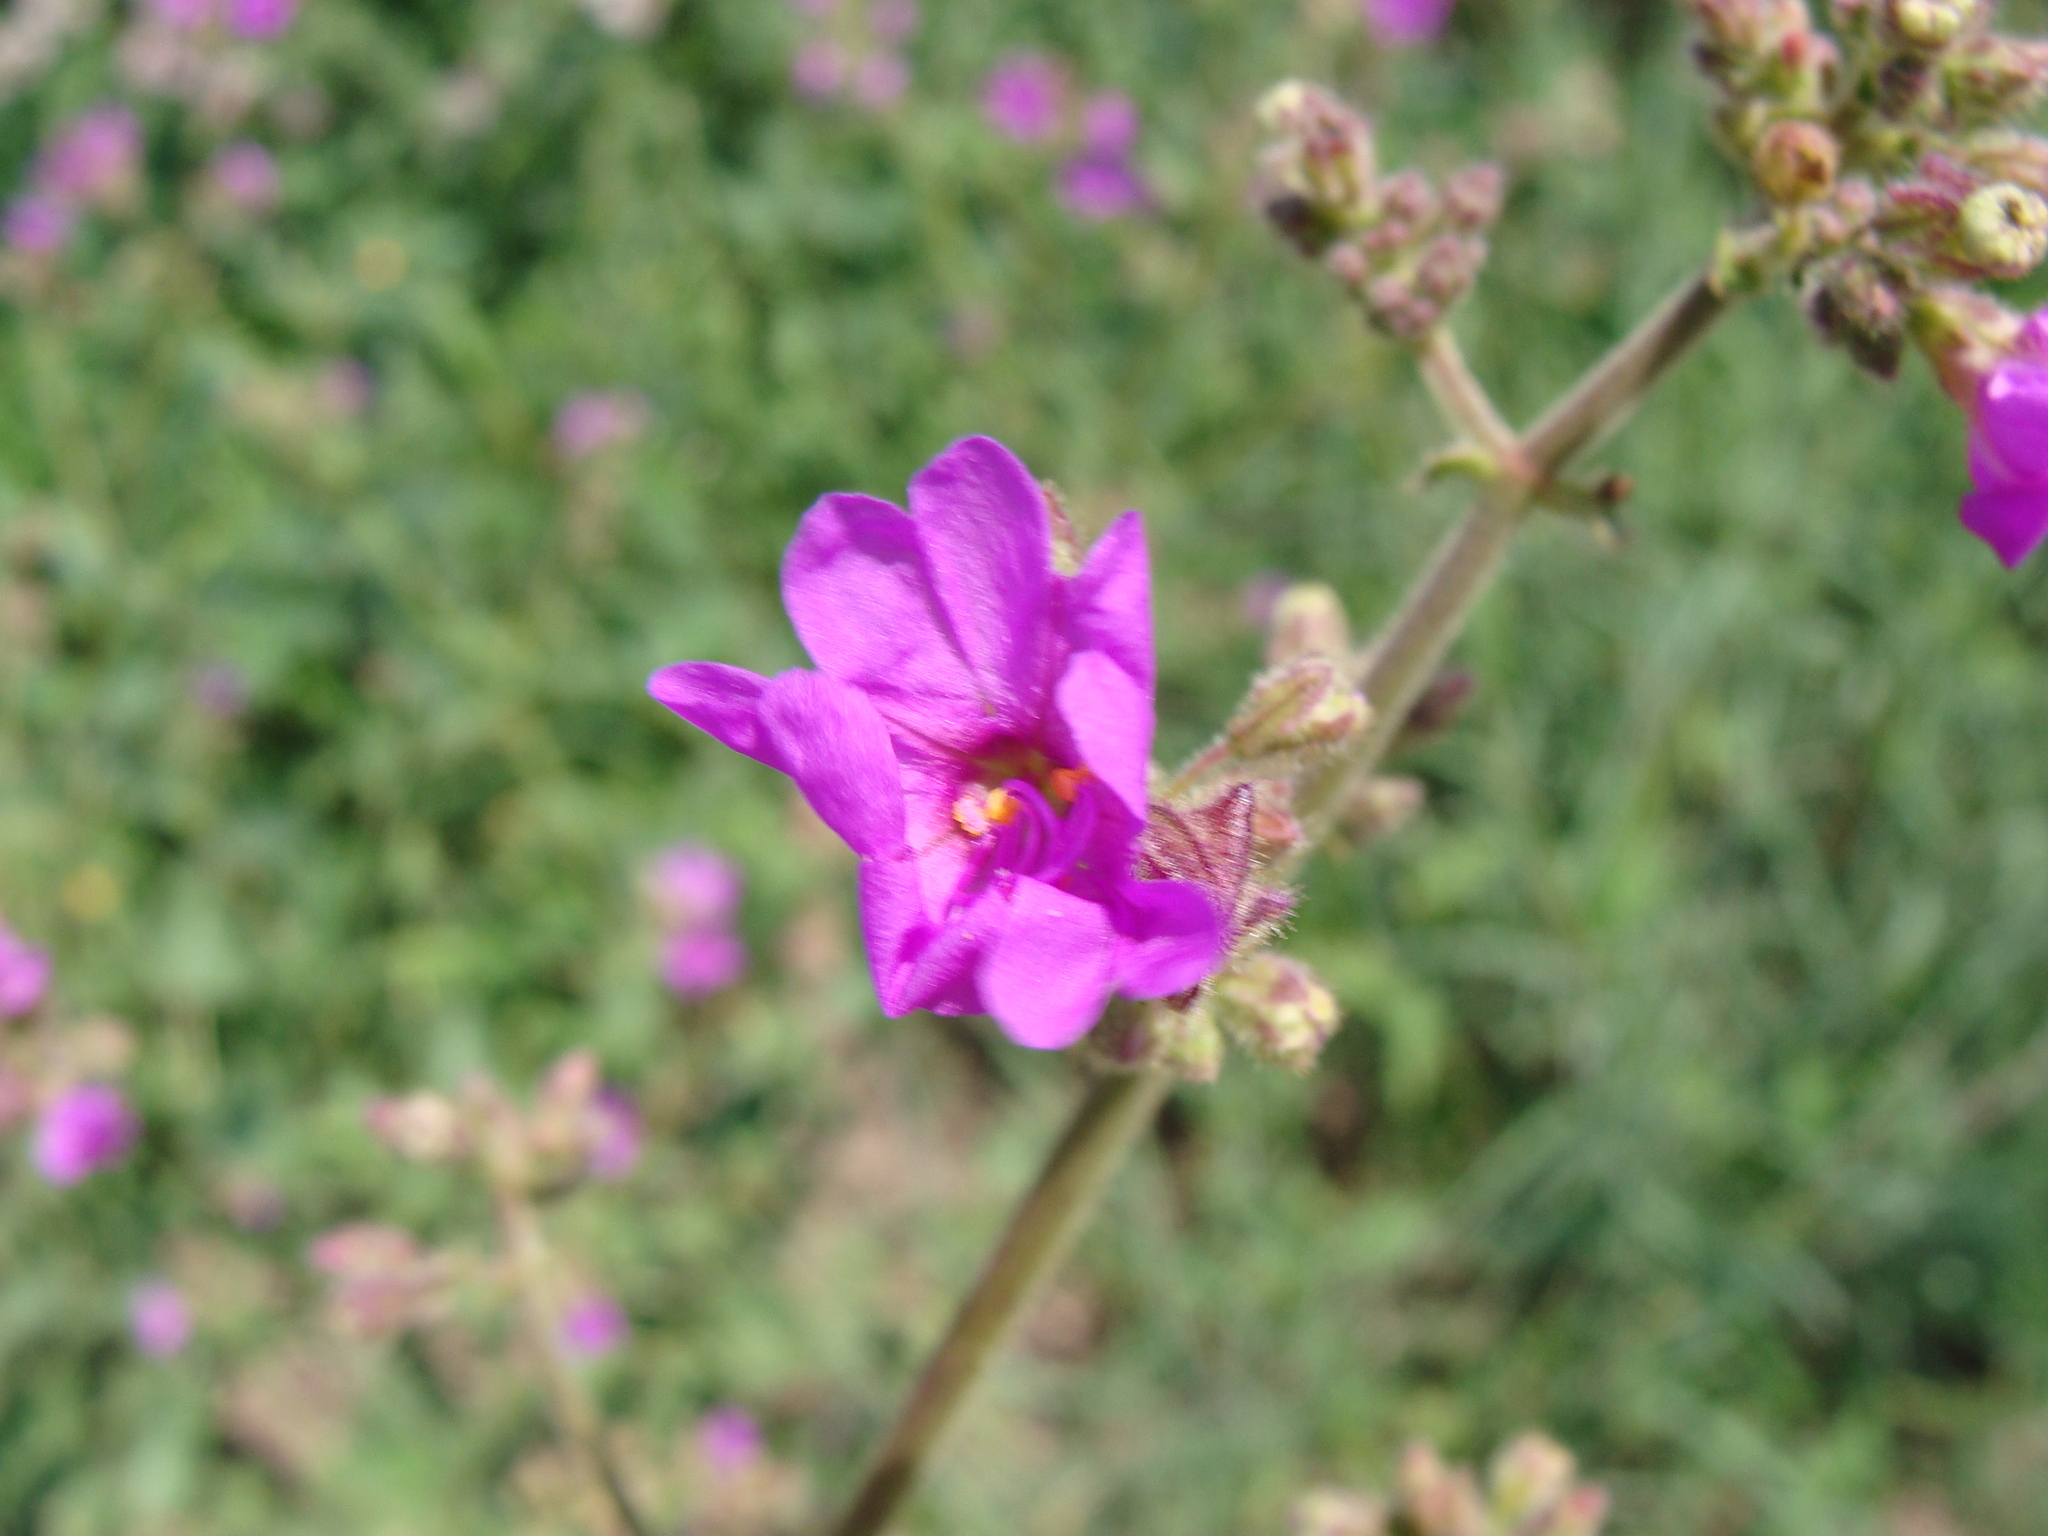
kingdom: Plantae
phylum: Tracheophyta
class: Magnoliopsida
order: Caryophyllales
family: Nyctaginaceae
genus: Mirabilis
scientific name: Mirabilis viscosa
